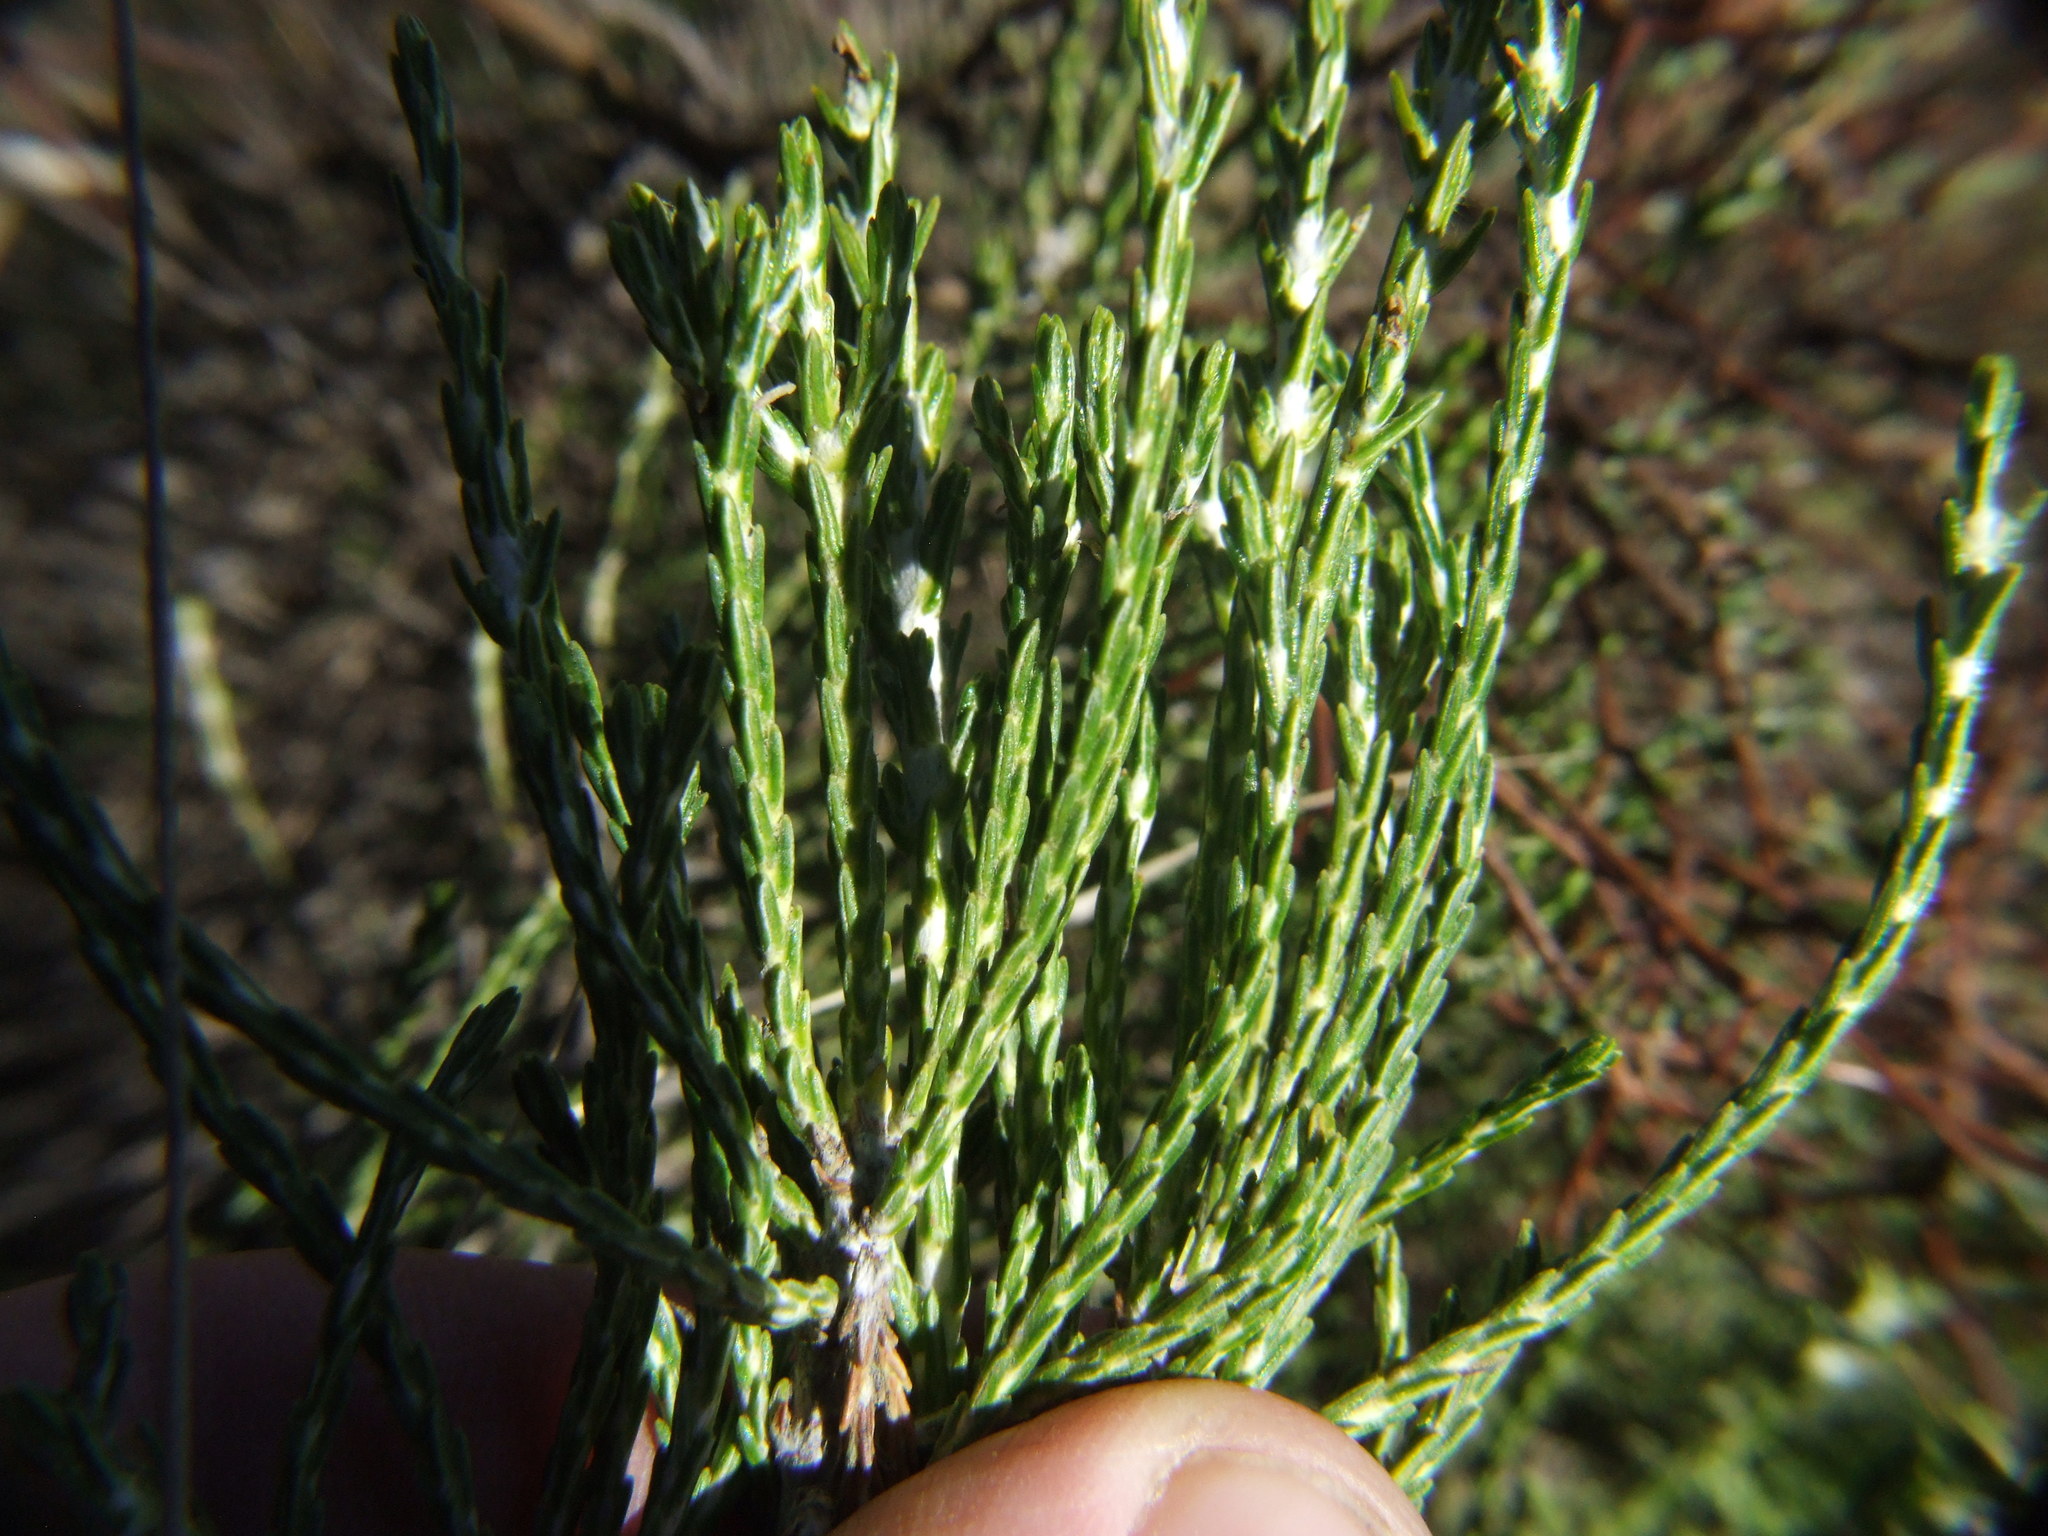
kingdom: Plantae
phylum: Tracheophyta
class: Magnoliopsida
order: Asterales
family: Asteraceae
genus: Parastrephia
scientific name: Parastrephia quadrangularis
